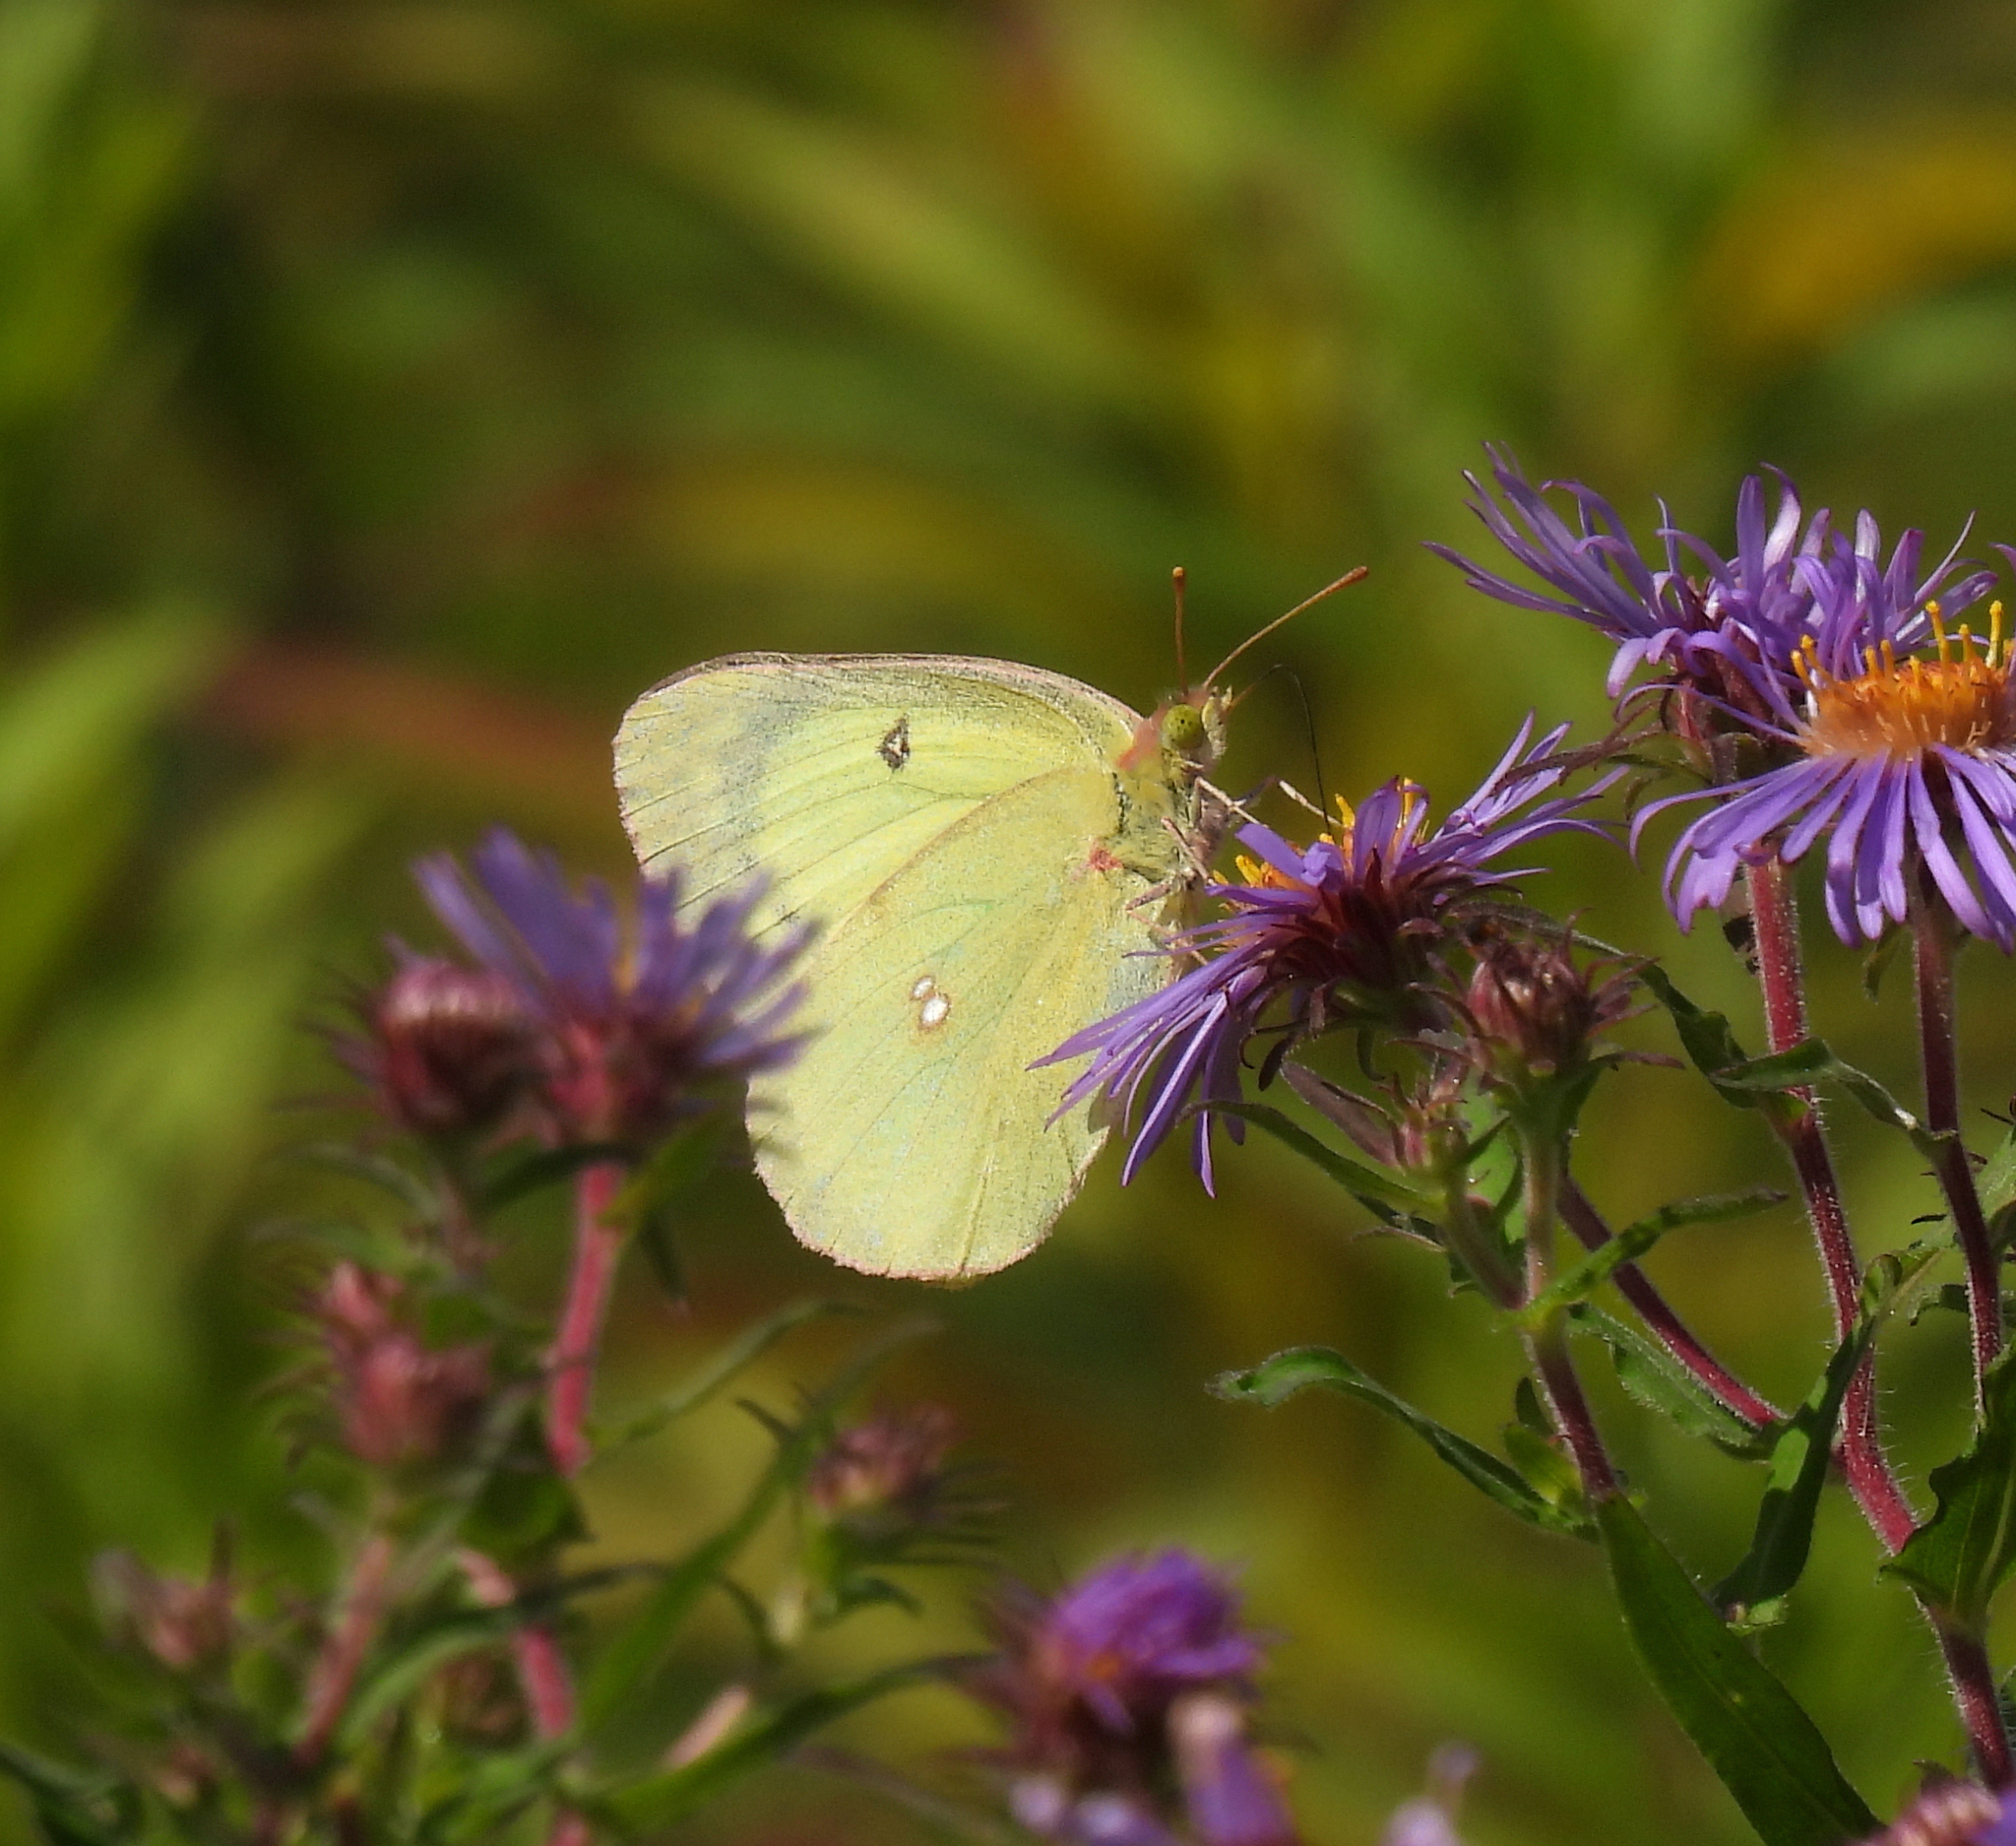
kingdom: Animalia
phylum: Arthropoda
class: Insecta
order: Lepidoptera
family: Pieridae
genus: Colias
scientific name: Colias philodice
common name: Clouded sulphur
